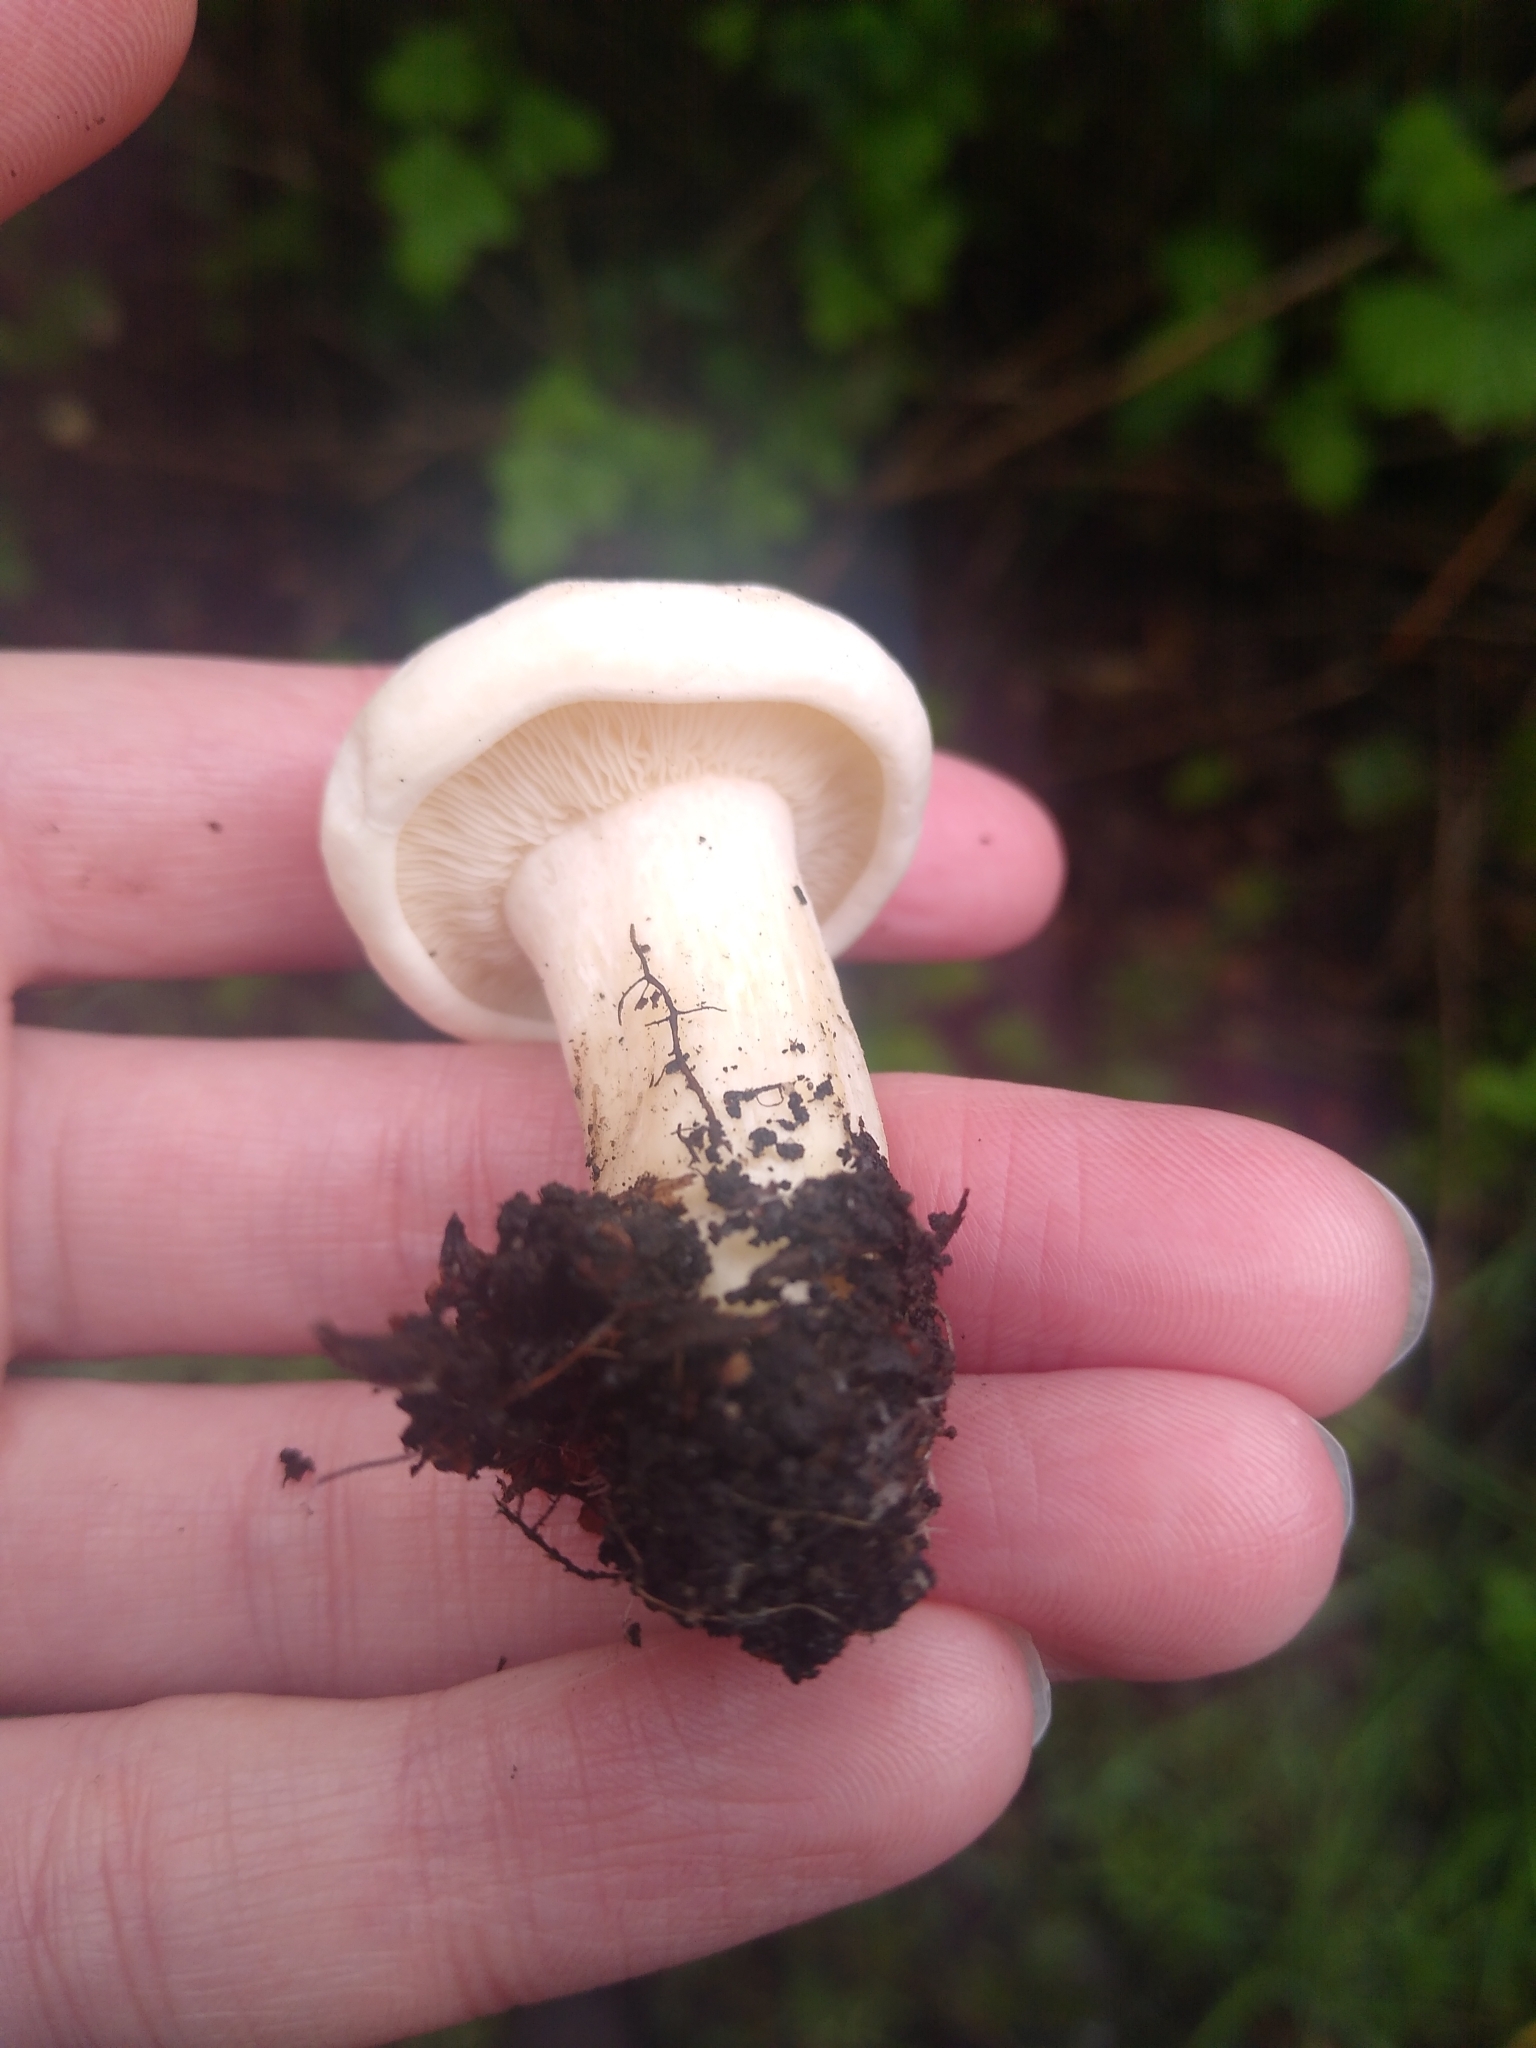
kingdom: Fungi
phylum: Basidiomycota
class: Agaricomycetes
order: Agaricales
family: Lyophyllaceae
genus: Calocybe
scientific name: Calocybe gambosa
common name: St. george's mushroom
